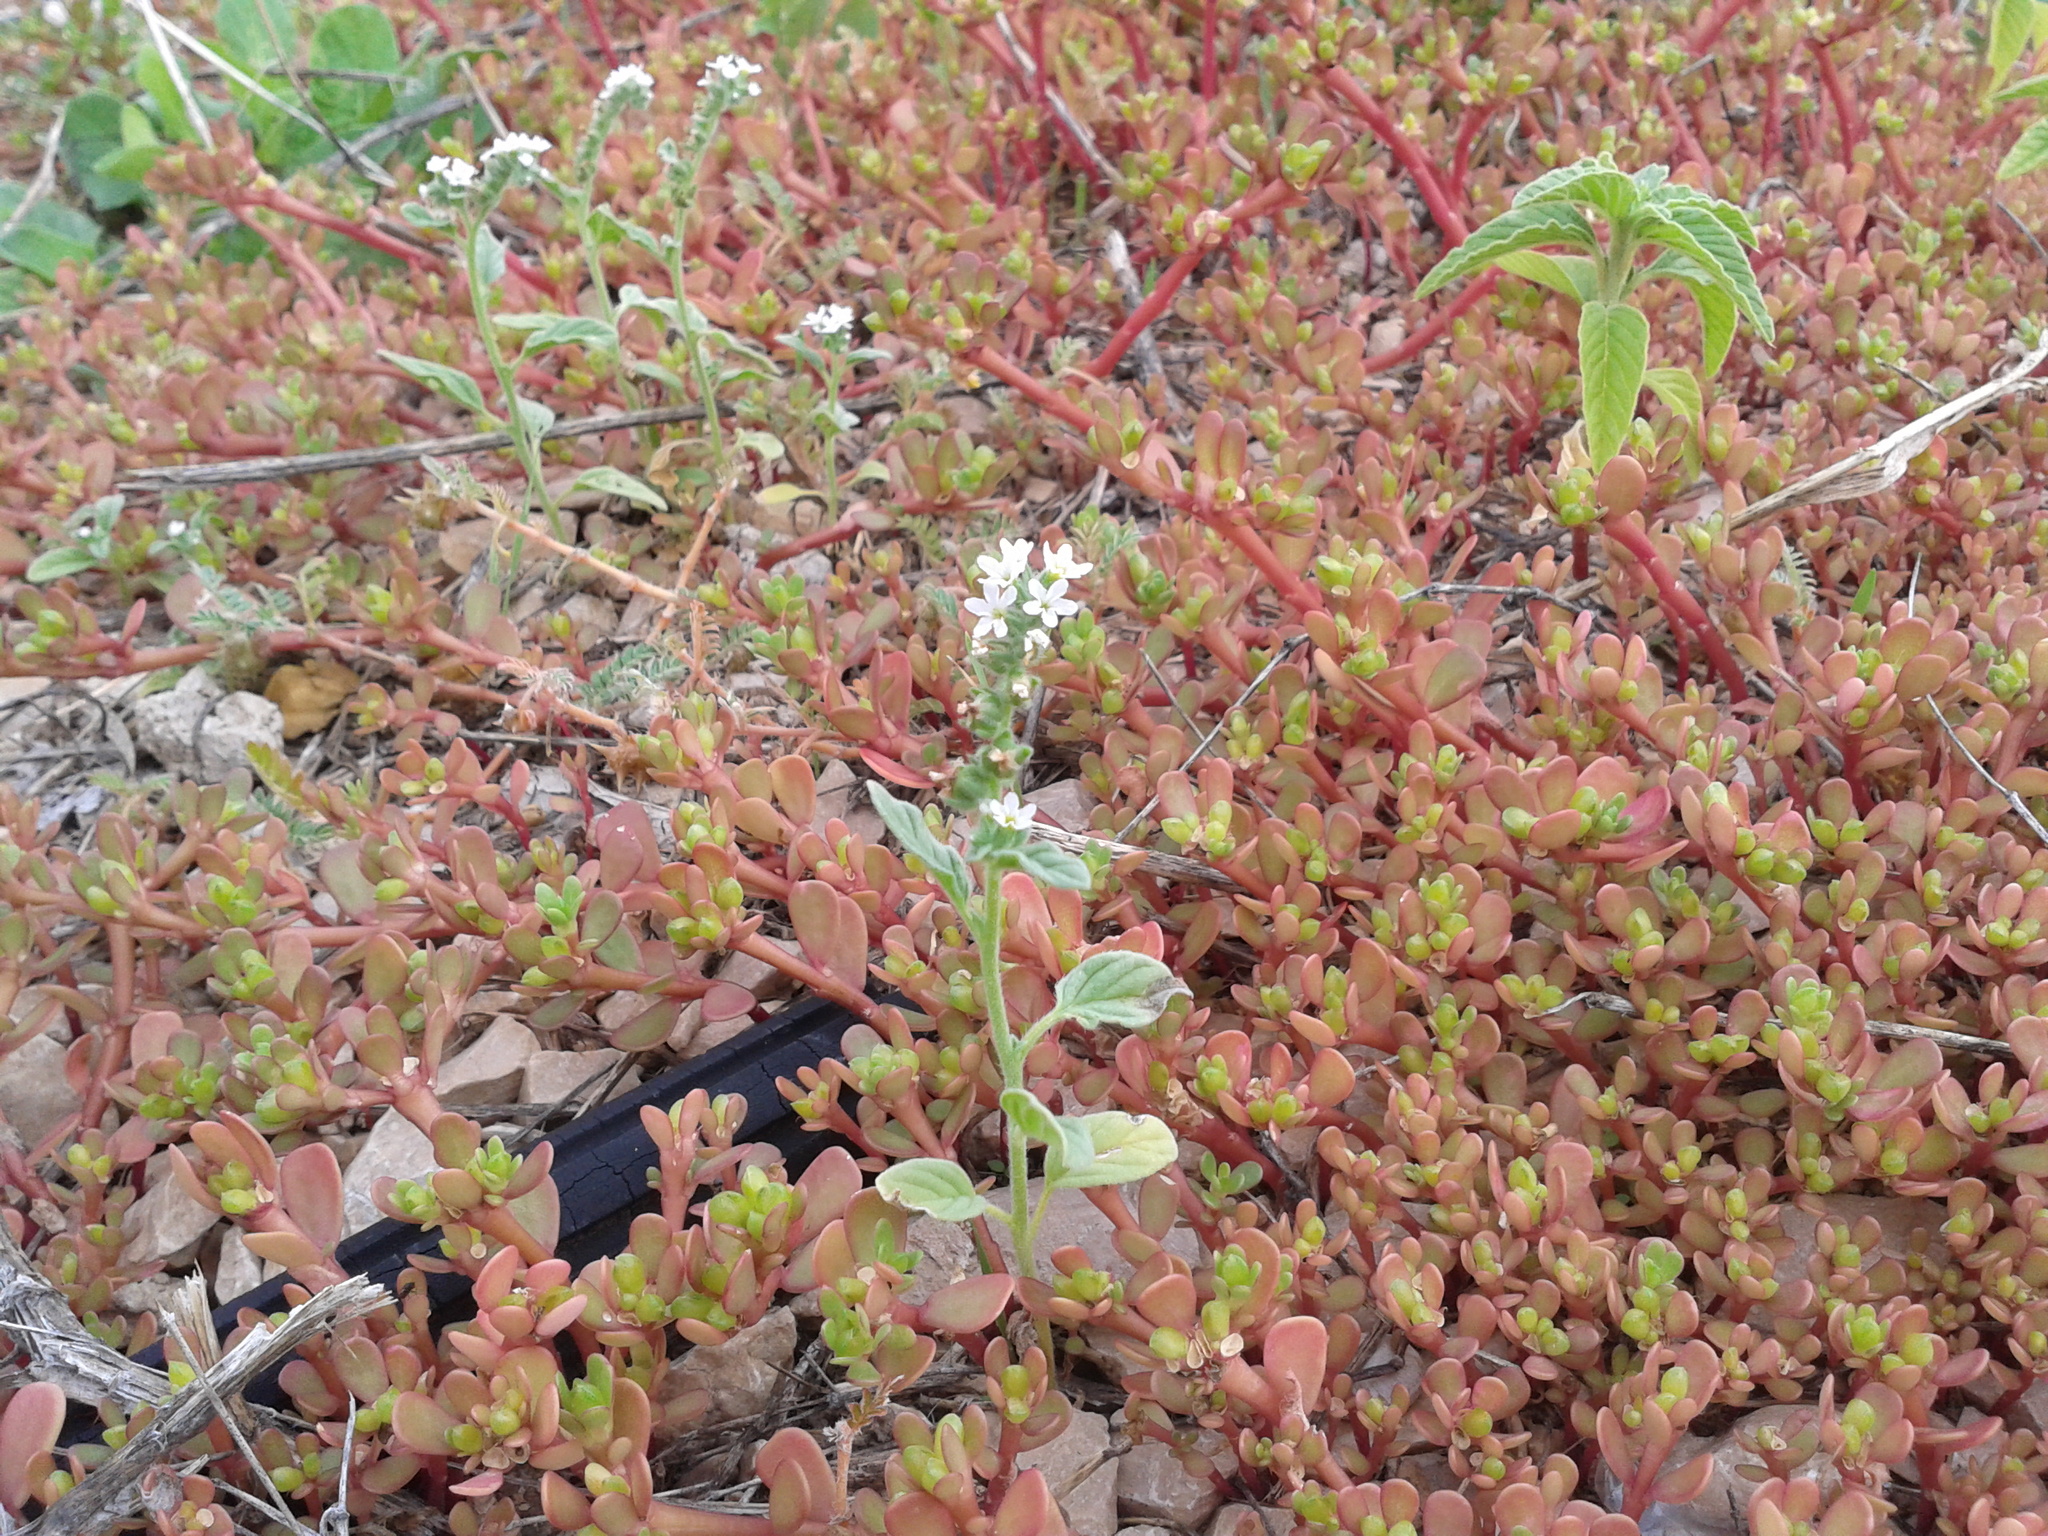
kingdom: Plantae
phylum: Tracheophyta
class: Magnoliopsida
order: Boraginales
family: Heliotropiaceae
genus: Heliotropium
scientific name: Heliotropium europaeum
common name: European heliotrope
